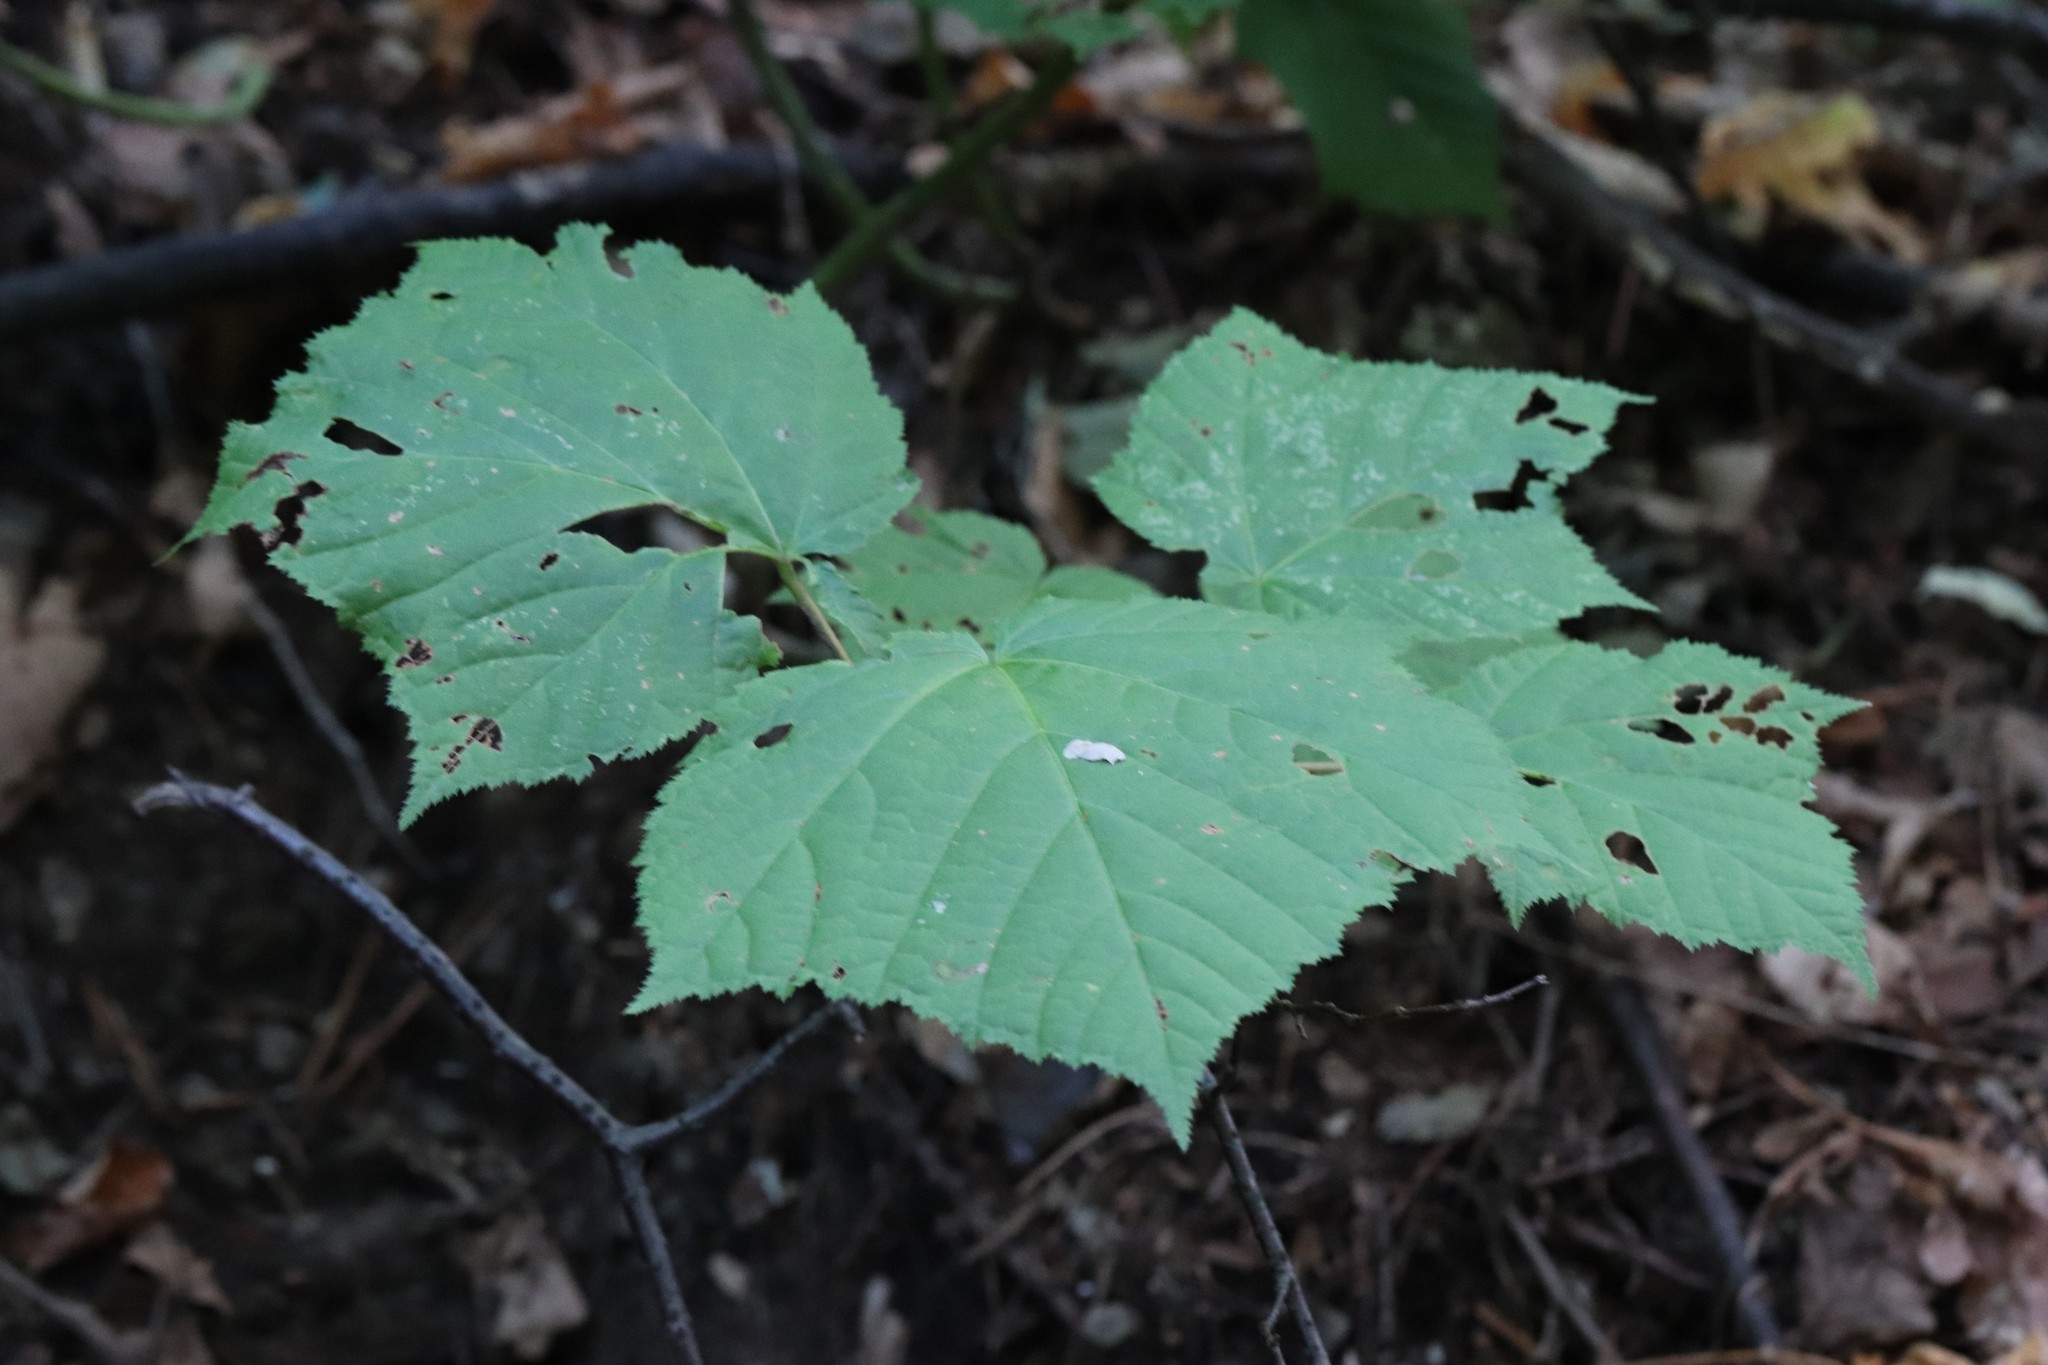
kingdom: Plantae
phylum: Tracheophyta
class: Magnoliopsida
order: Sapindales
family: Sapindaceae
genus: Acer
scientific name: Acer tegmentosum
